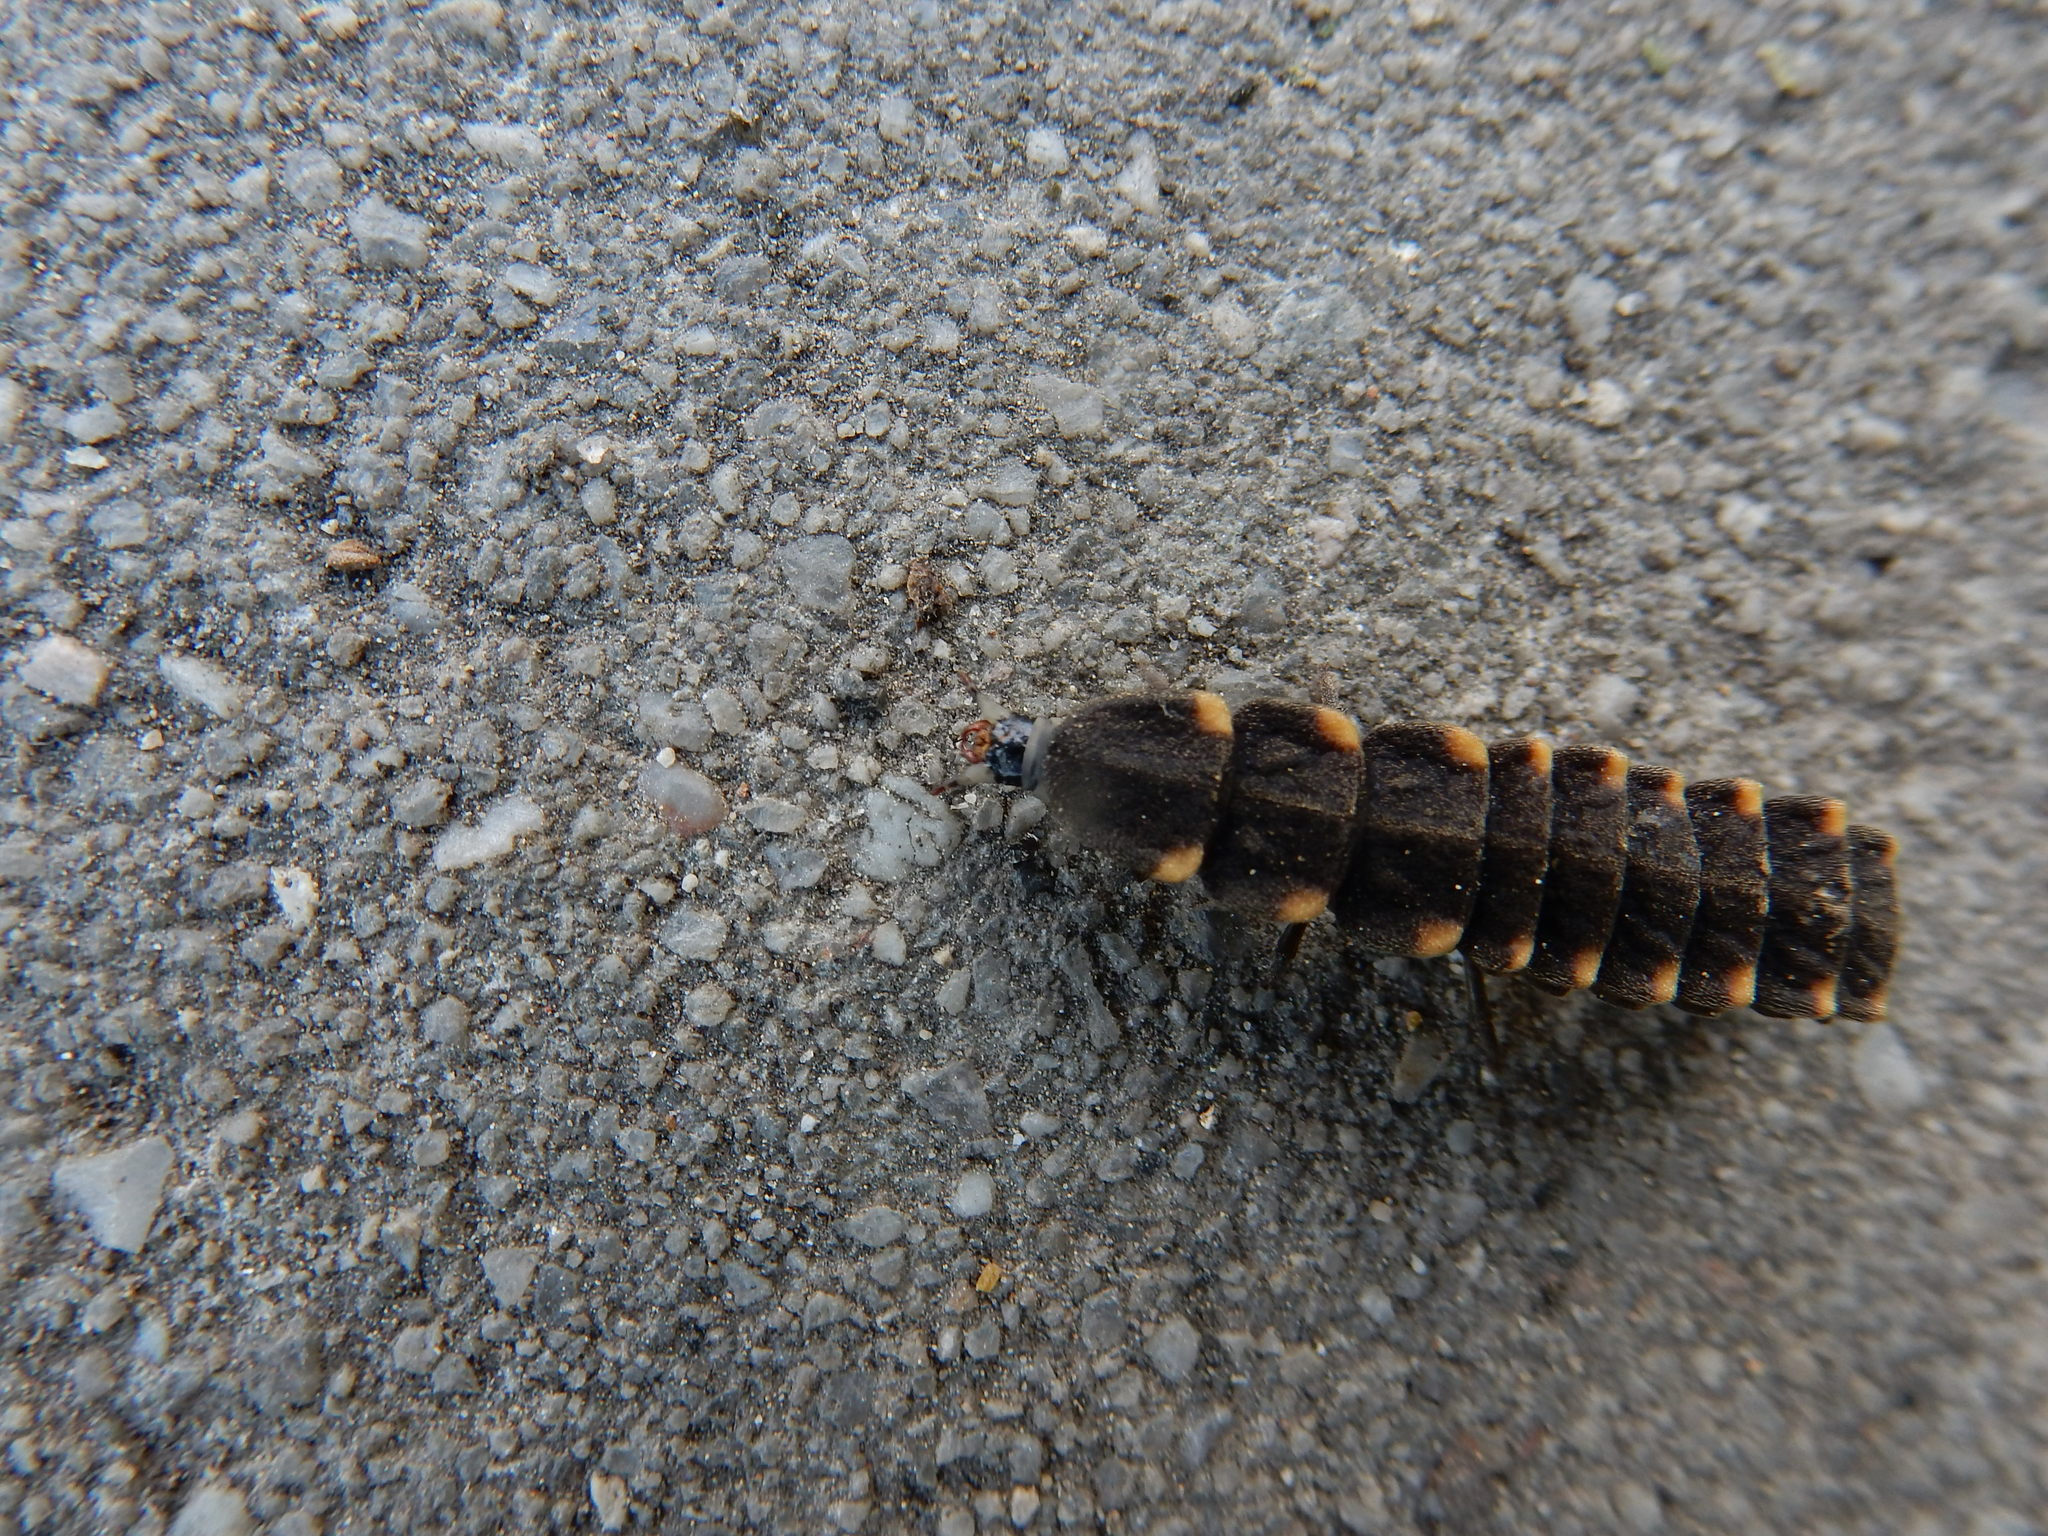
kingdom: Animalia
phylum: Arthropoda
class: Insecta
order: Coleoptera
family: Lampyridae
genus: Lampyris
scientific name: Lampyris noctiluca
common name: Glow-worm
